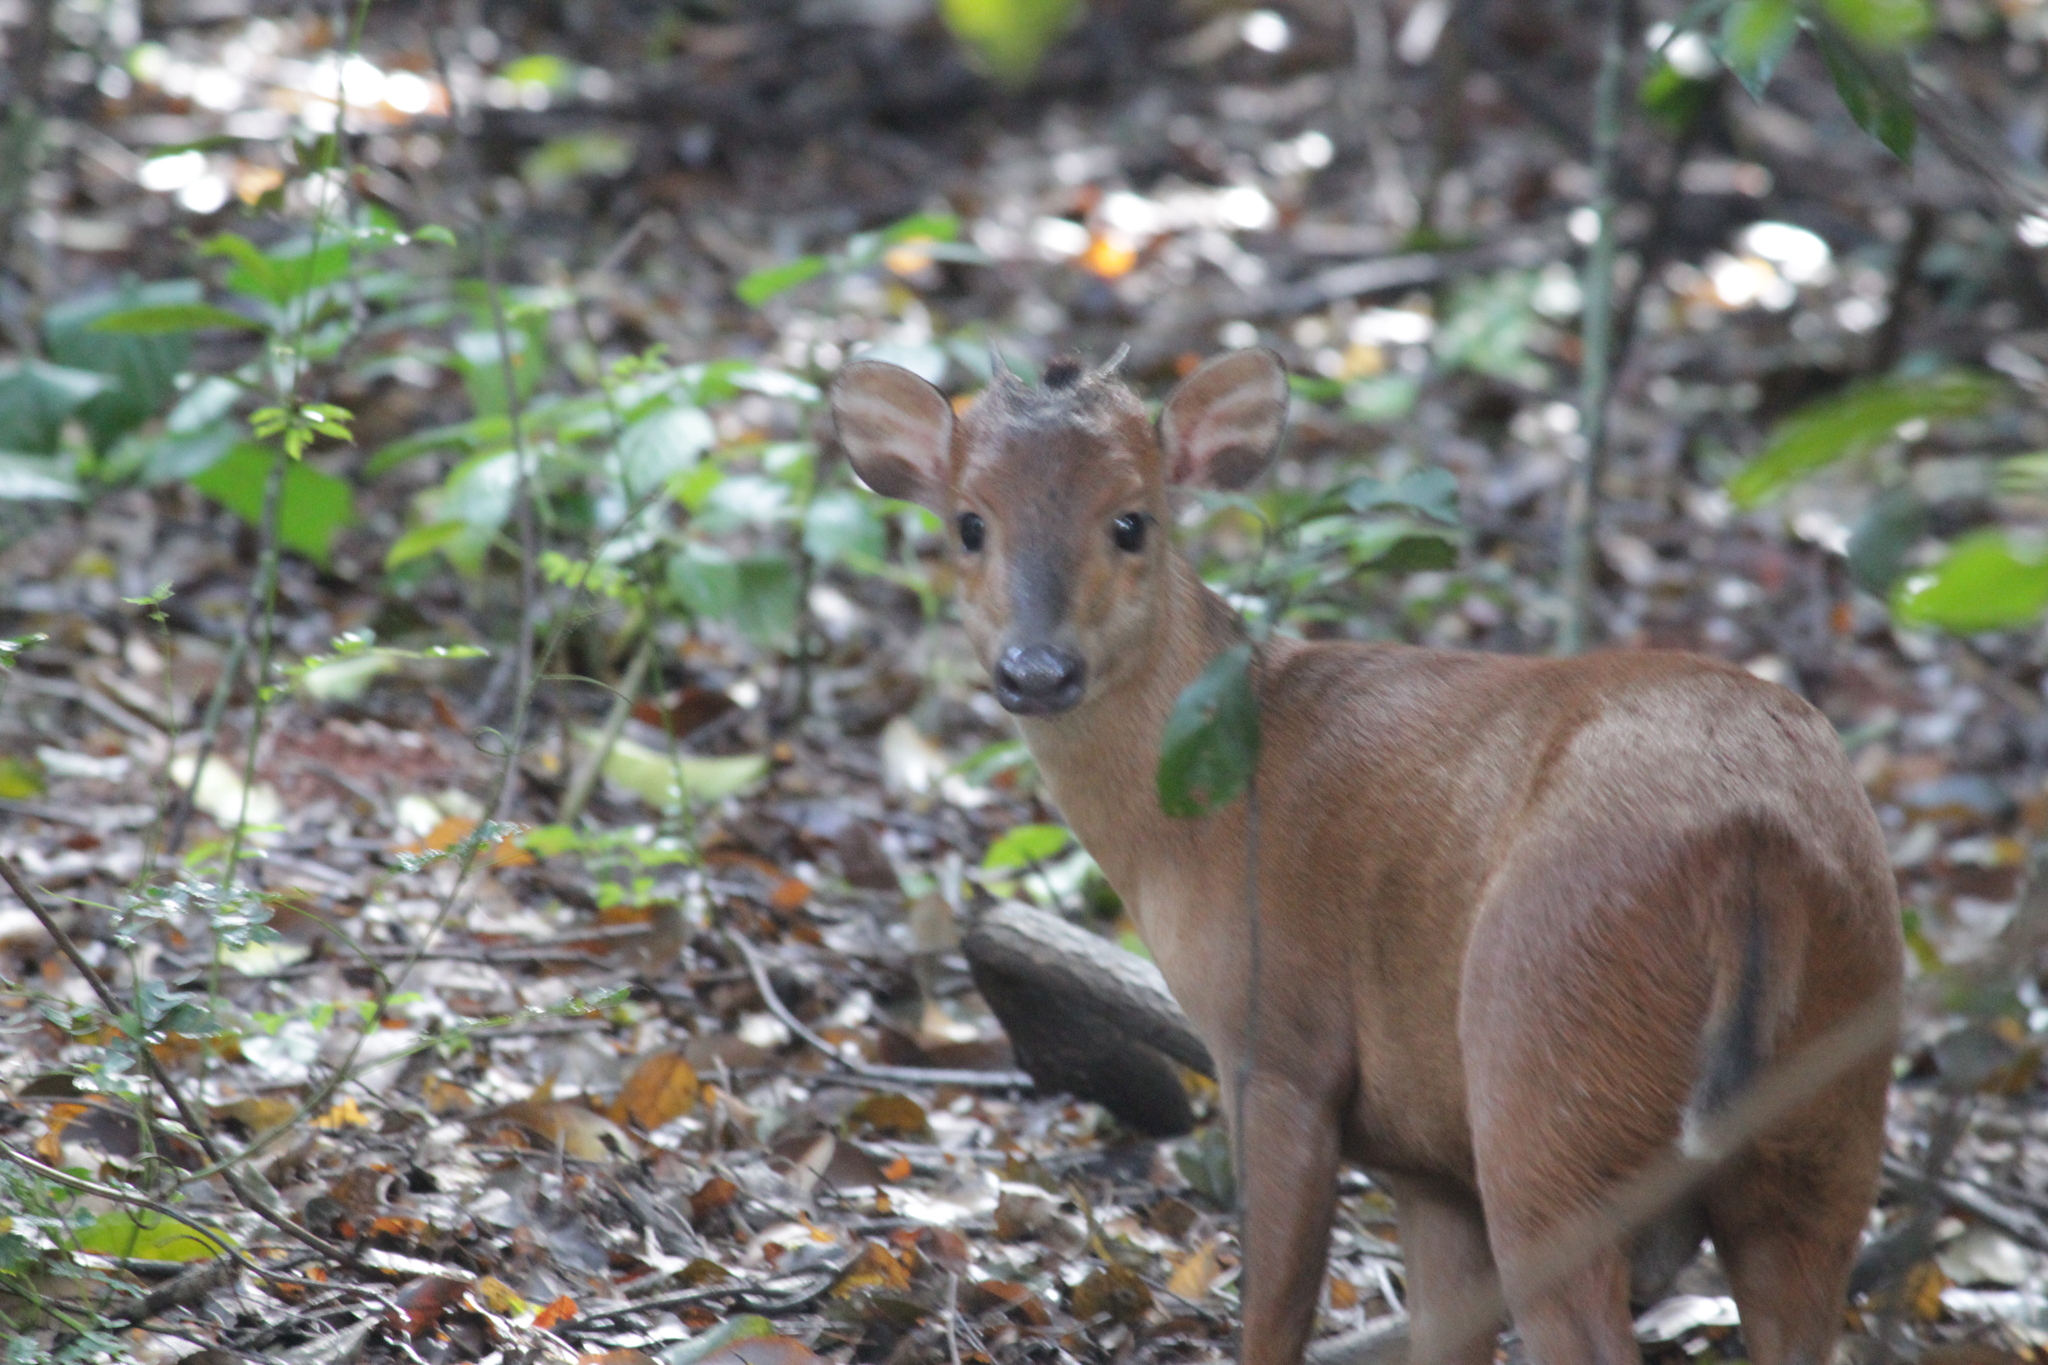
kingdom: Animalia
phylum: Chordata
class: Mammalia
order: Artiodactyla
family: Bovidae
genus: Cephalophus
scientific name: Cephalophus natalensis
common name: Red duiker
